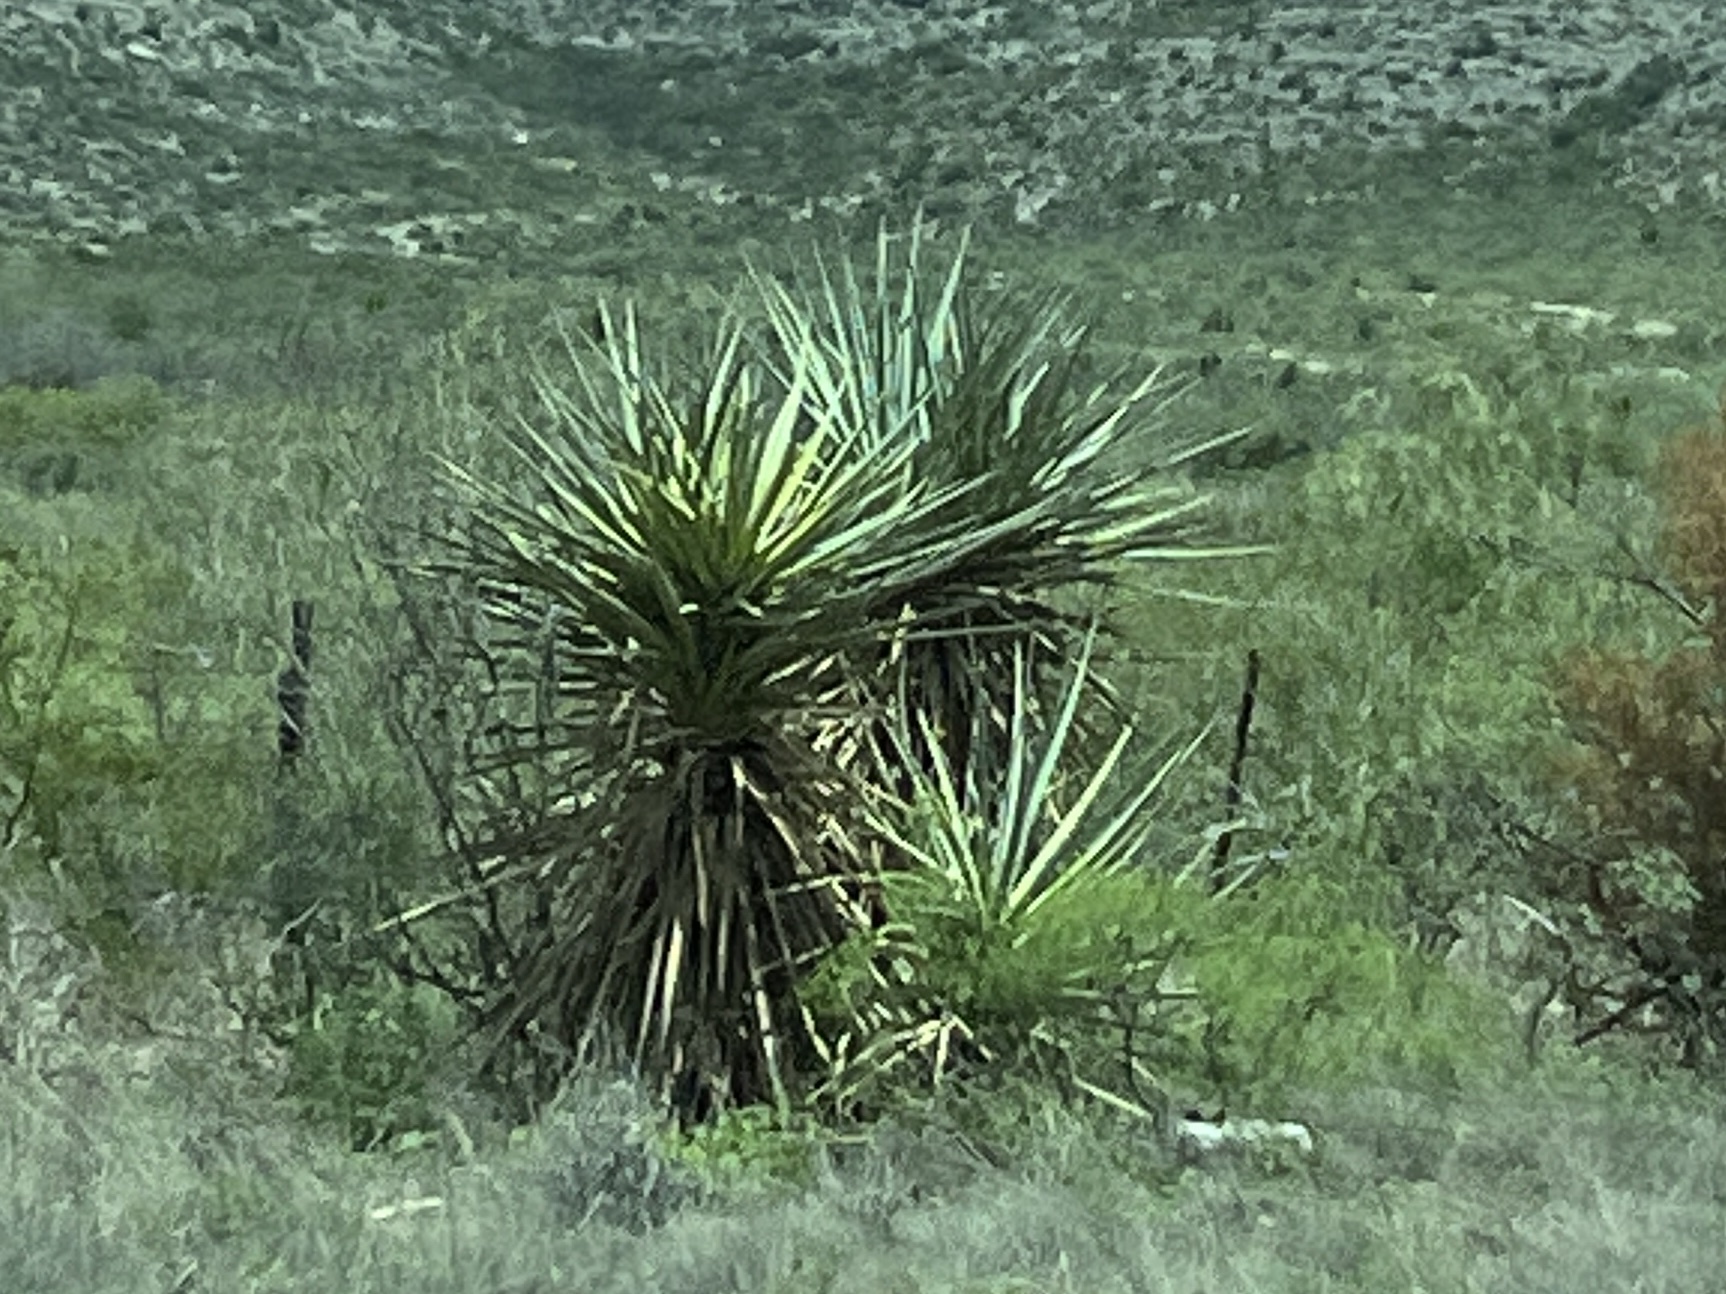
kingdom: Plantae
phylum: Tracheophyta
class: Liliopsida
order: Asparagales
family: Asparagaceae
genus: Yucca
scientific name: Yucca treculiana
